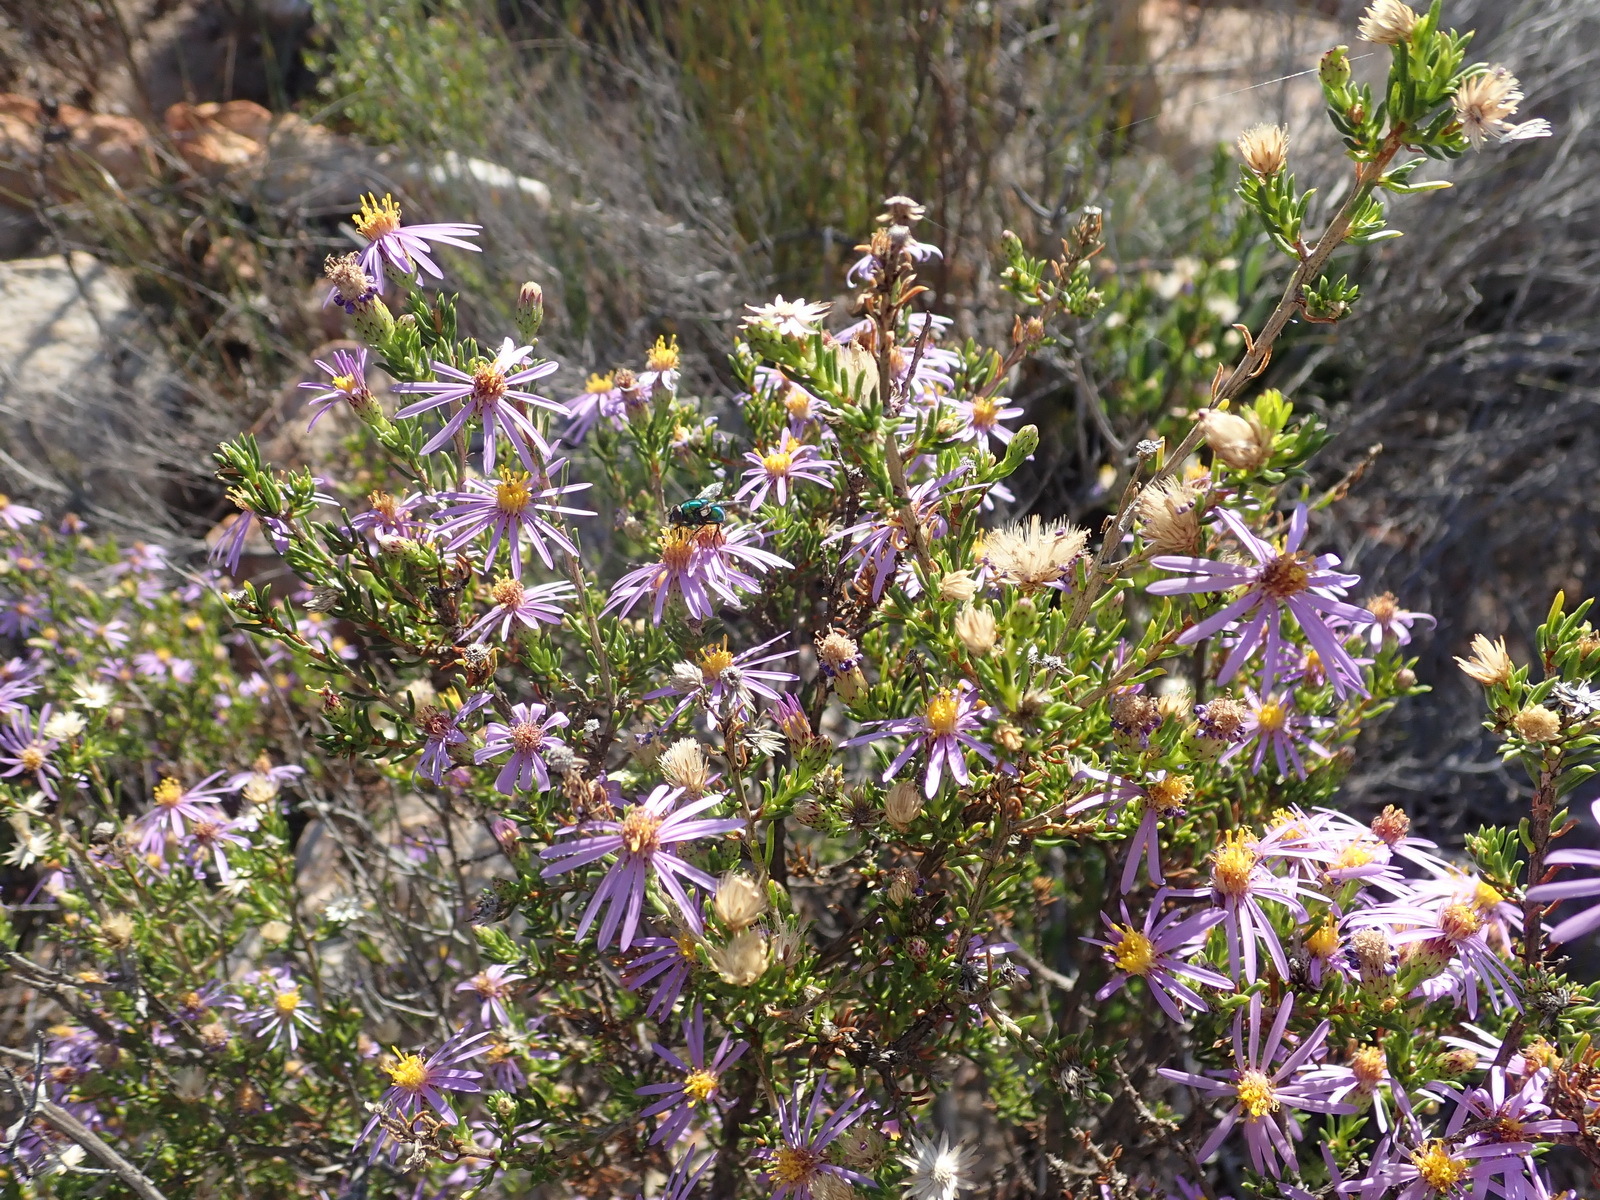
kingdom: Plantae
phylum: Tracheophyta
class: Magnoliopsida
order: Asterales
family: Asteraceae
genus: Felicia
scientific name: Felicia filifolia
